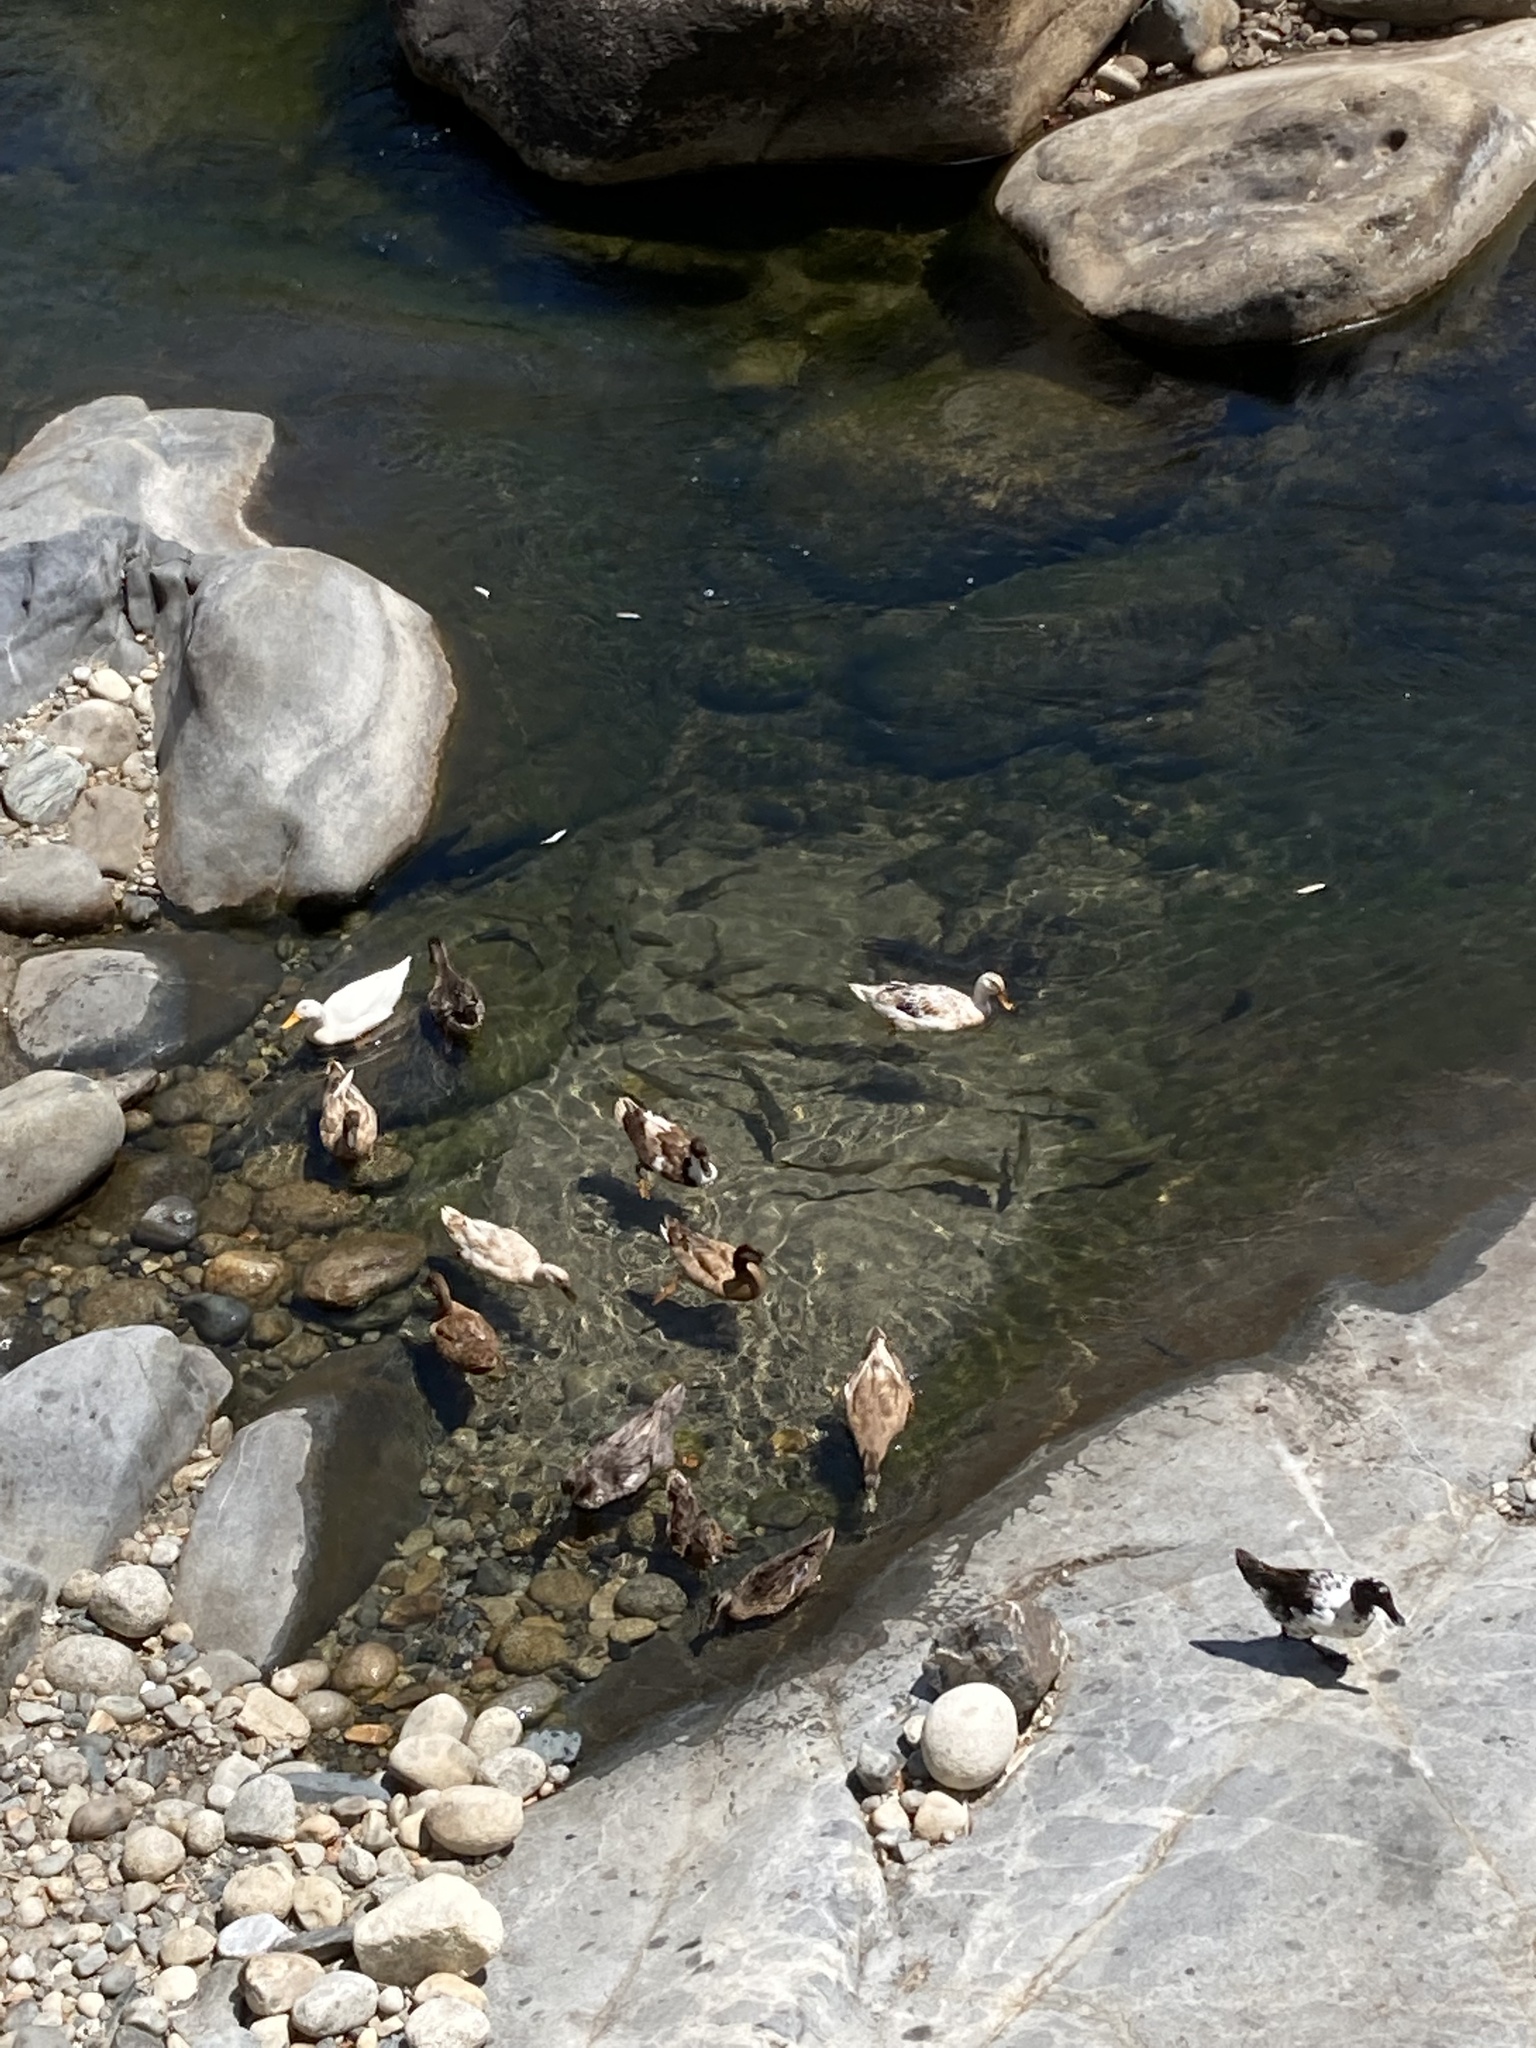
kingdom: Animalia
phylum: Chordata
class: Aves
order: Anseriformes
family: Anatidae
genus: Anas
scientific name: Anas platyrhynchos
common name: Mallard
